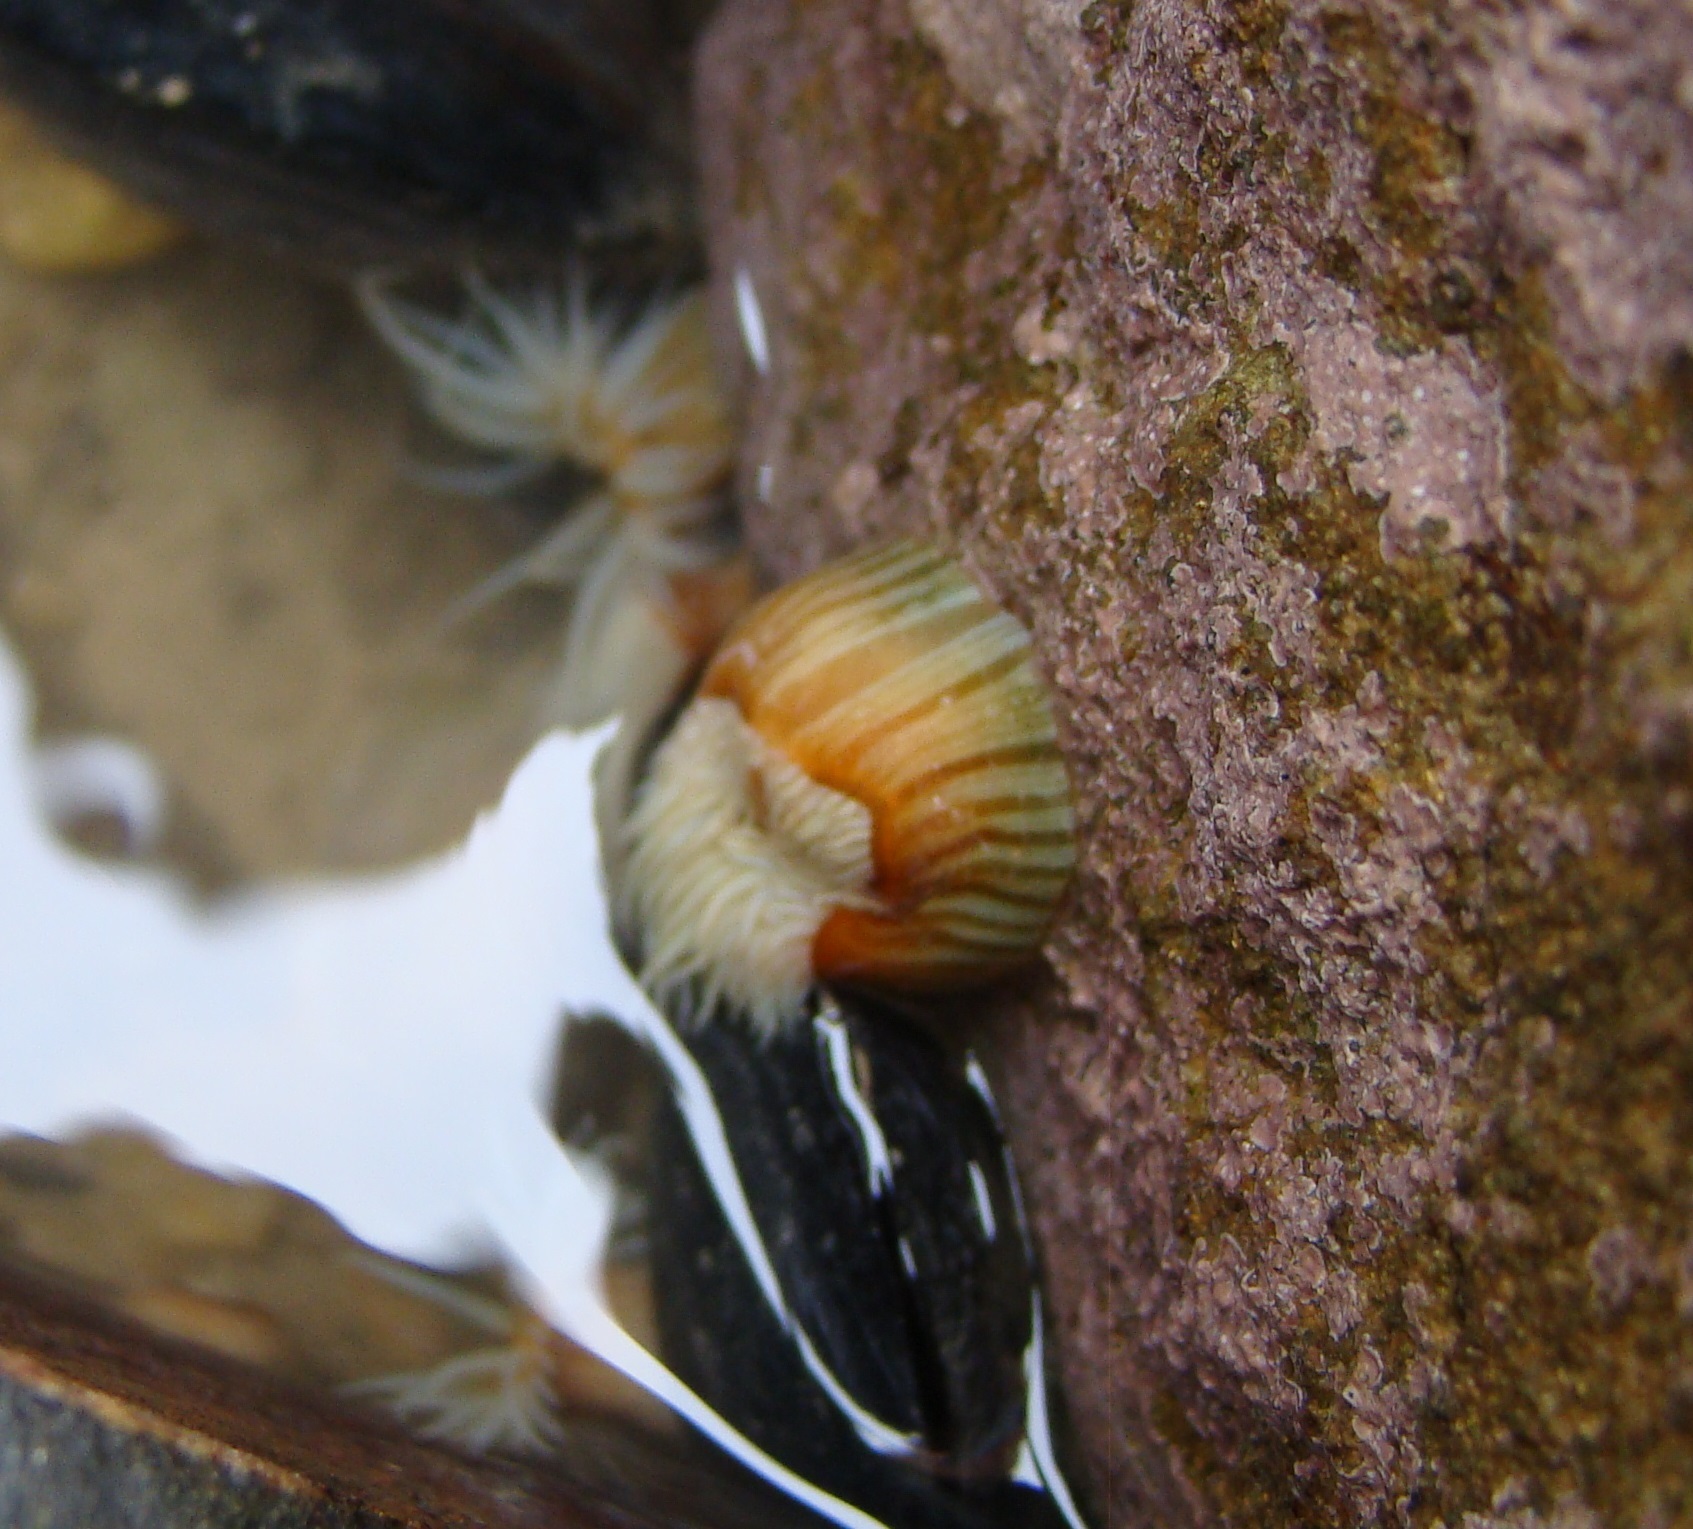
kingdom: Animalia
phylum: Cnidaria
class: Anthozoa
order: Actiniaria
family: Sagartiidae
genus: Anthothoe
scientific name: Anthothoe albocincta
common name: Orange striped anemone
